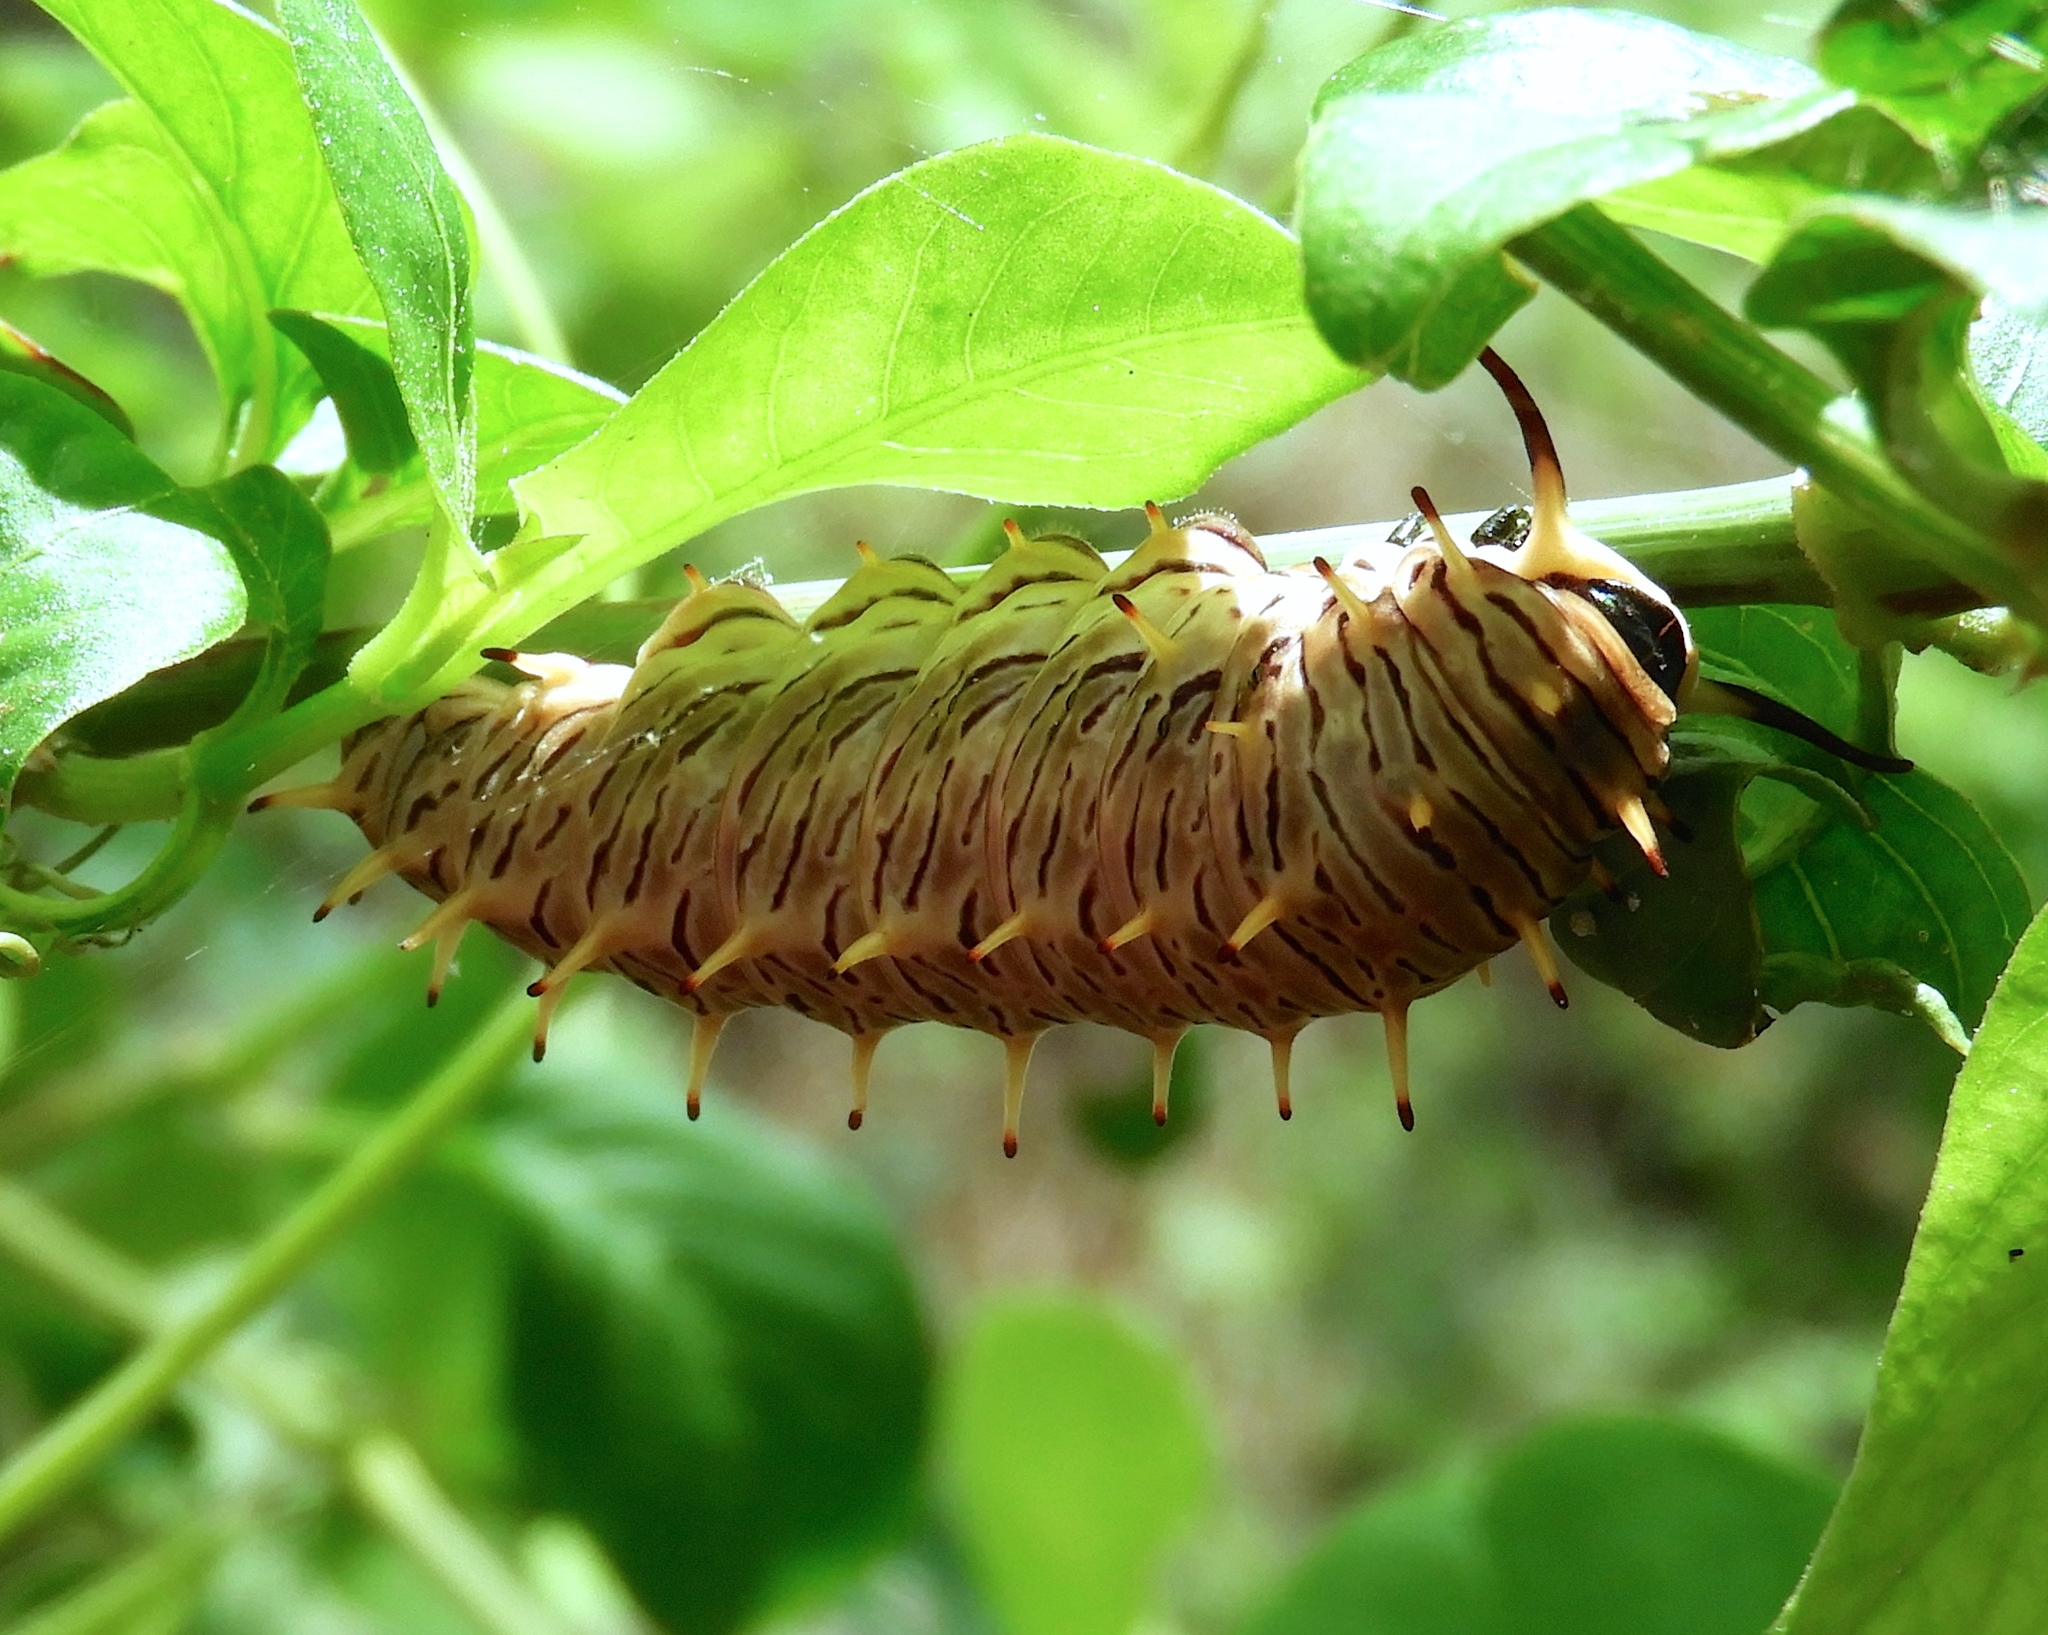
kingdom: Animalia
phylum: Arthropoda
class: Insecta
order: Lepidoptera
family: Papilionidae
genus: Battus
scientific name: Battus polydamas
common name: Polydamas swallowtail
